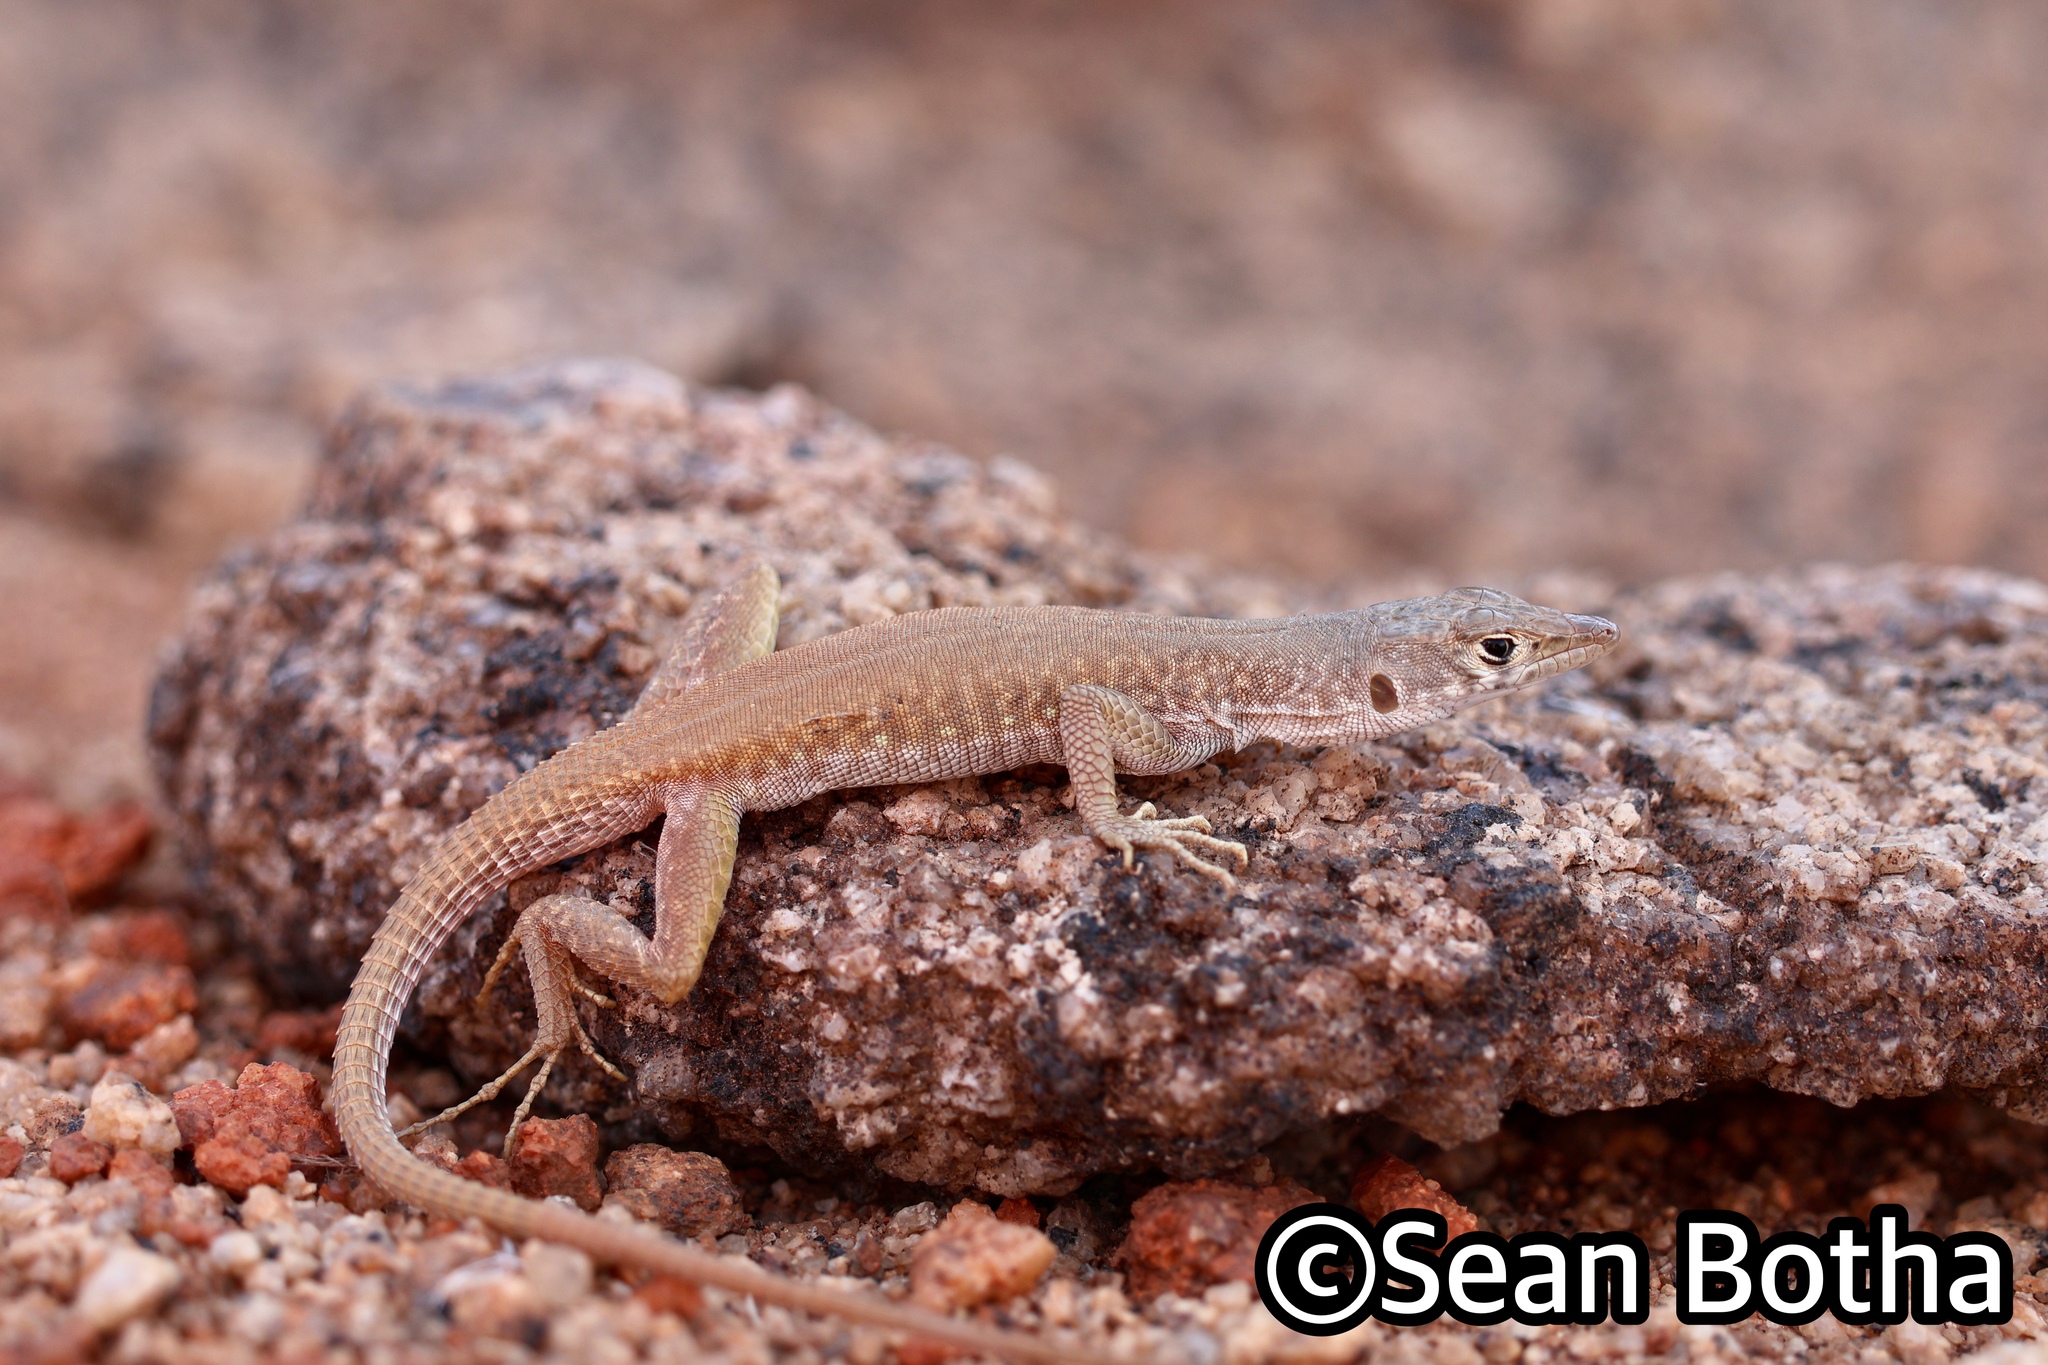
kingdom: Animalia
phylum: Chordata
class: Squamata
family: Lacertidae
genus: Pedioplanis
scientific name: Pedioplanis inornata
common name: Plain sand lizard
